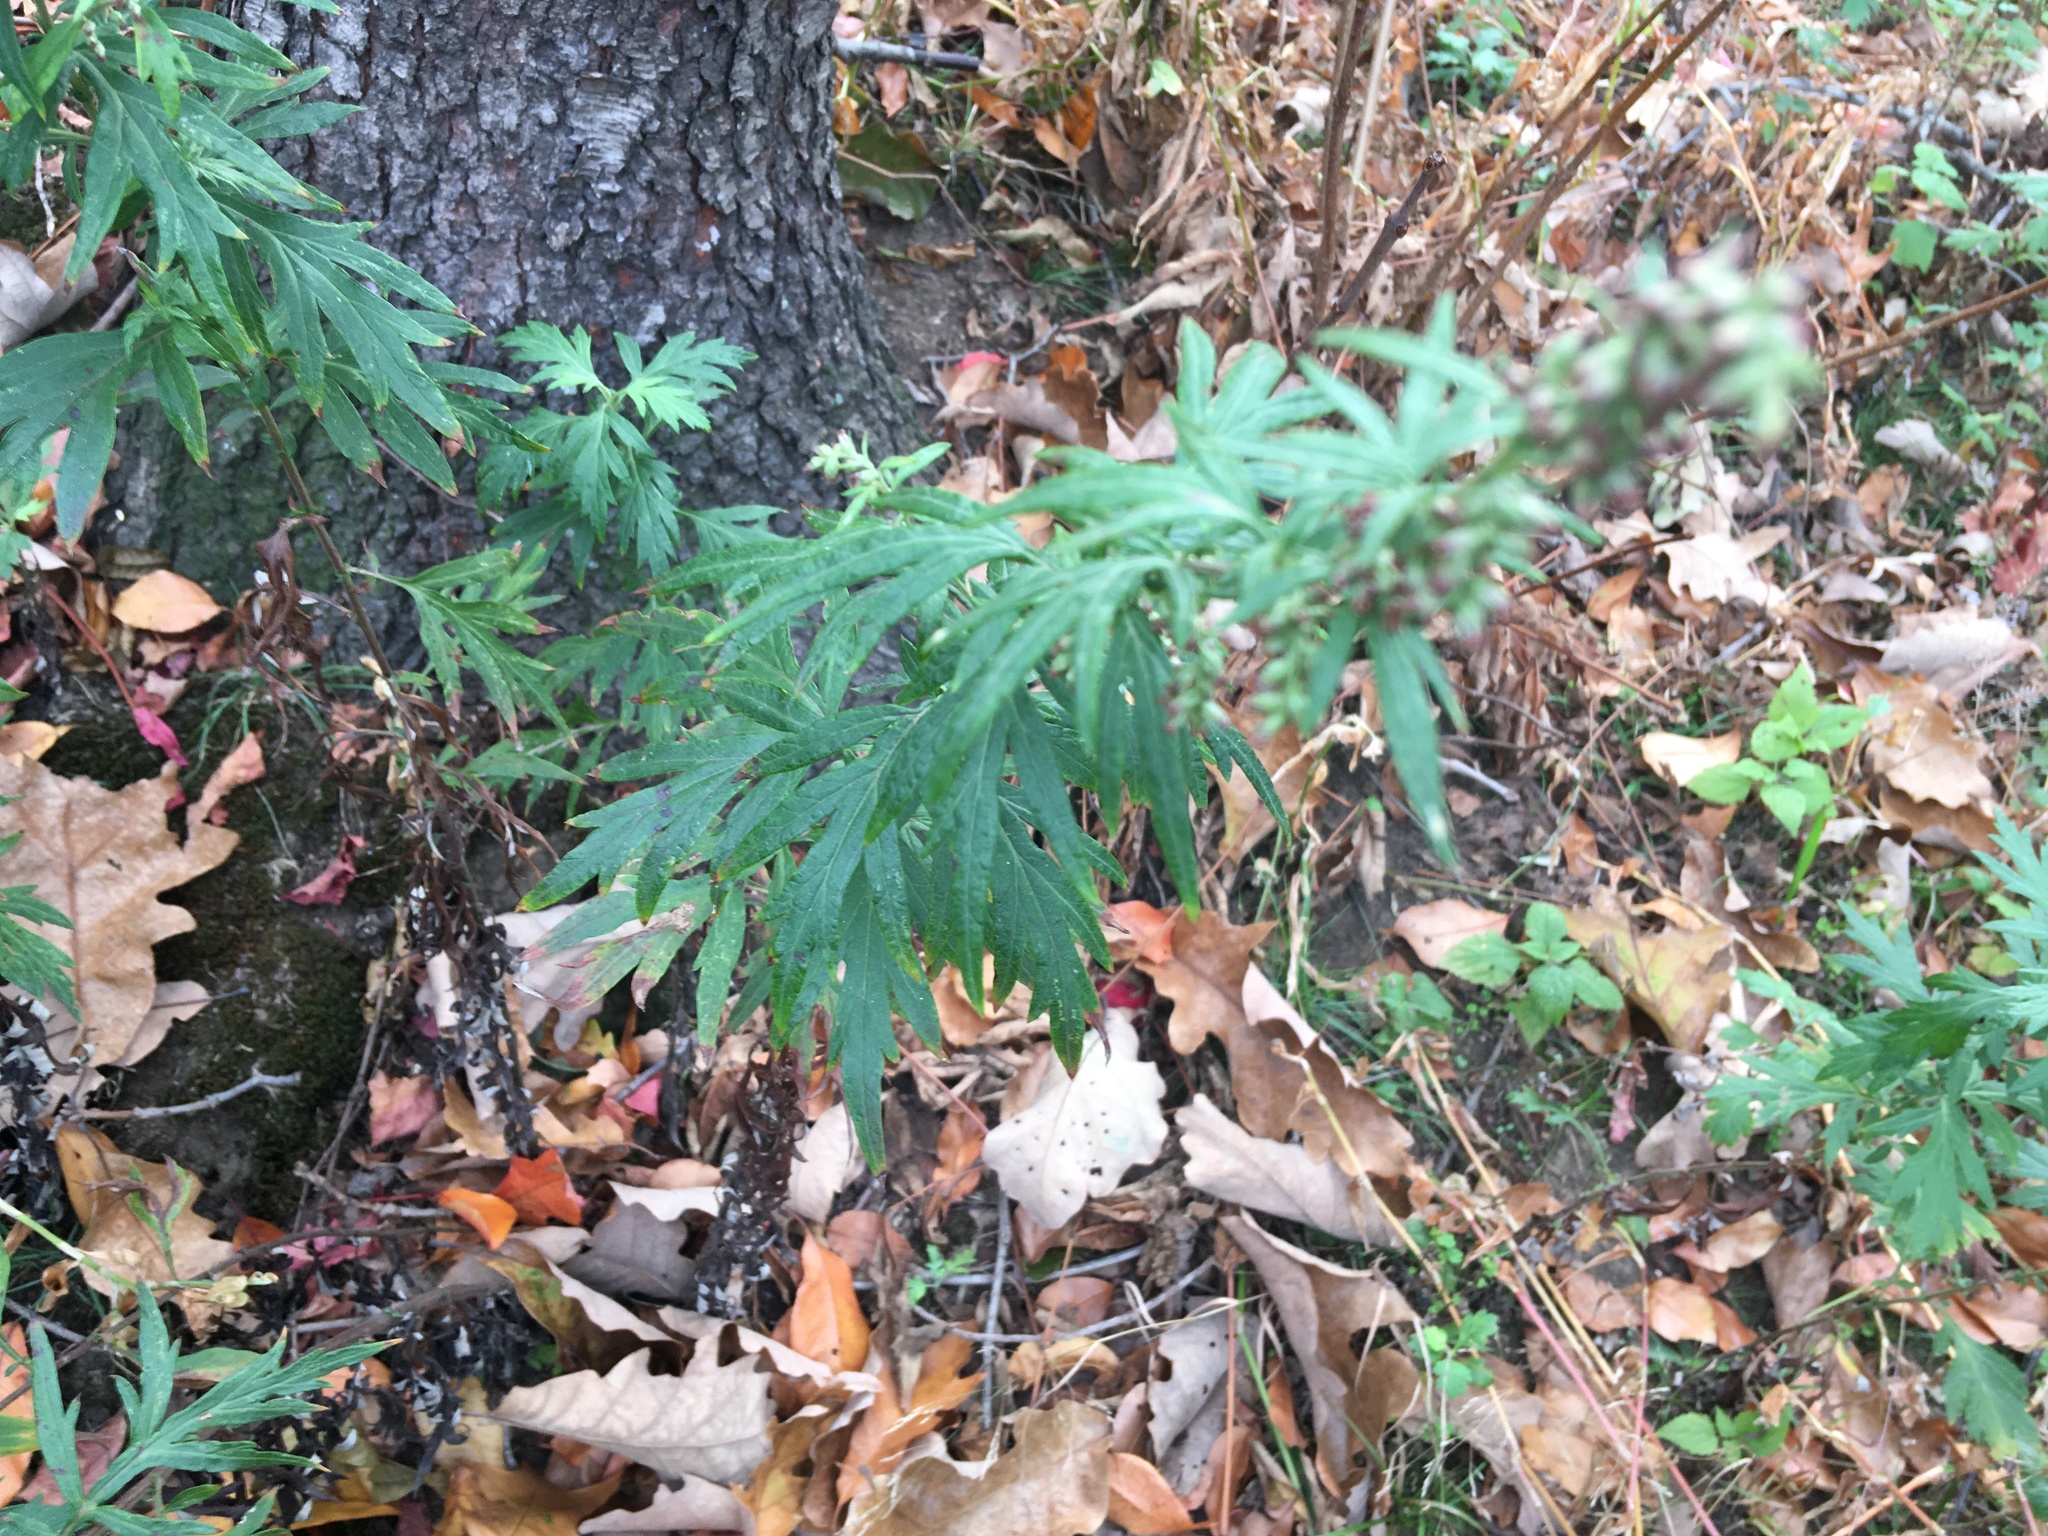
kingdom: Plantae
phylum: Tracheophyta
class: Magnoliopsida
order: Asterales
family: Asteraceae
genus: Artemisia
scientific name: Artemisia vulgaris
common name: Mugwort
